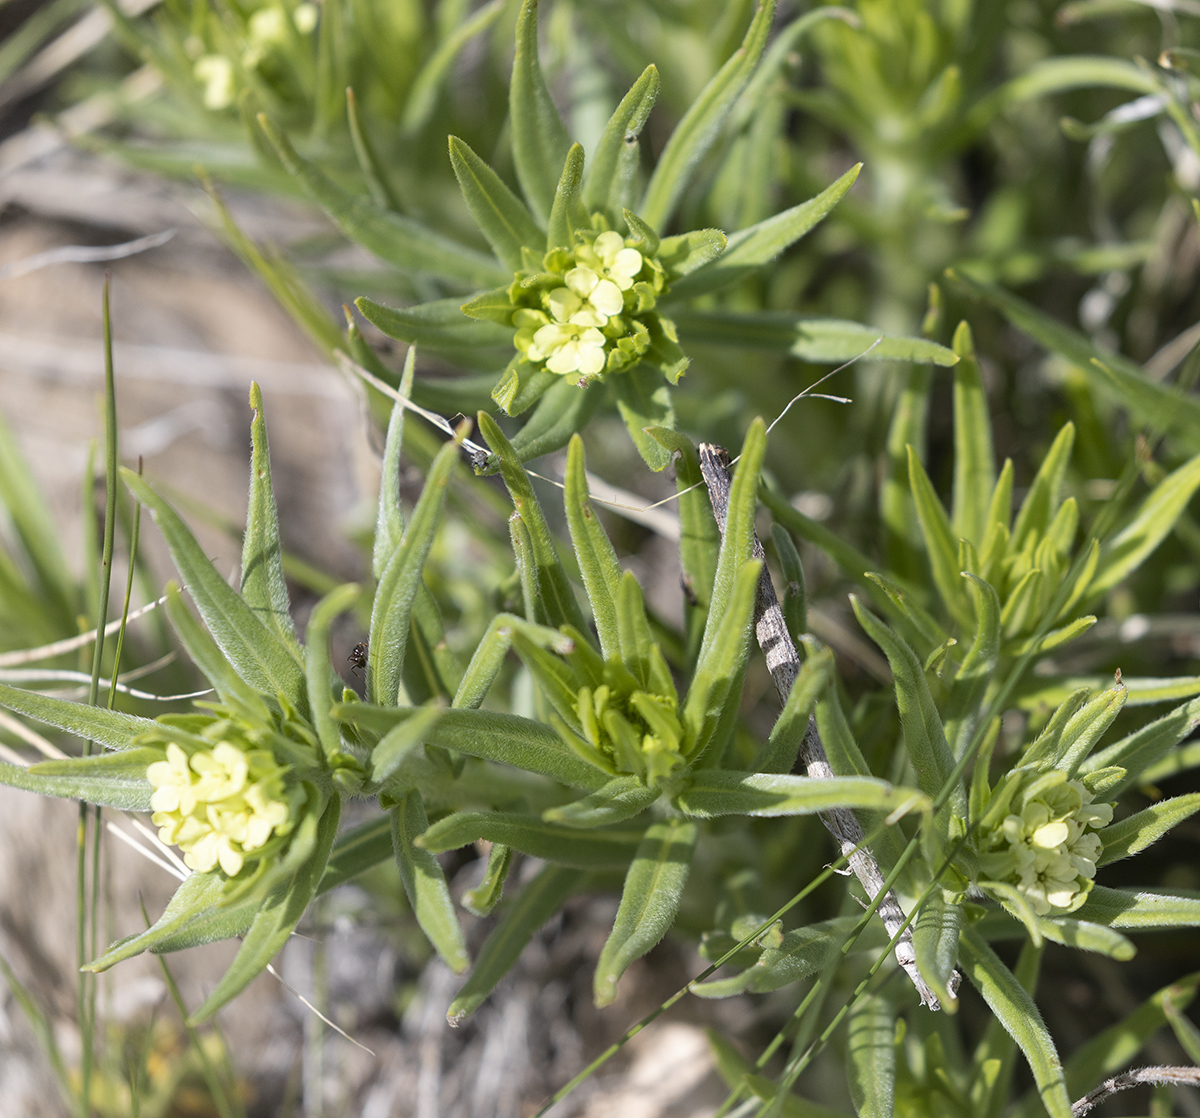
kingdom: Plantae
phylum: Tracheophyta
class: Magnoliopsida
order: Boraginales
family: Boraginaceae
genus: Lithospermum
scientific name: Lithospermum ruderale
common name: Western gromwell
